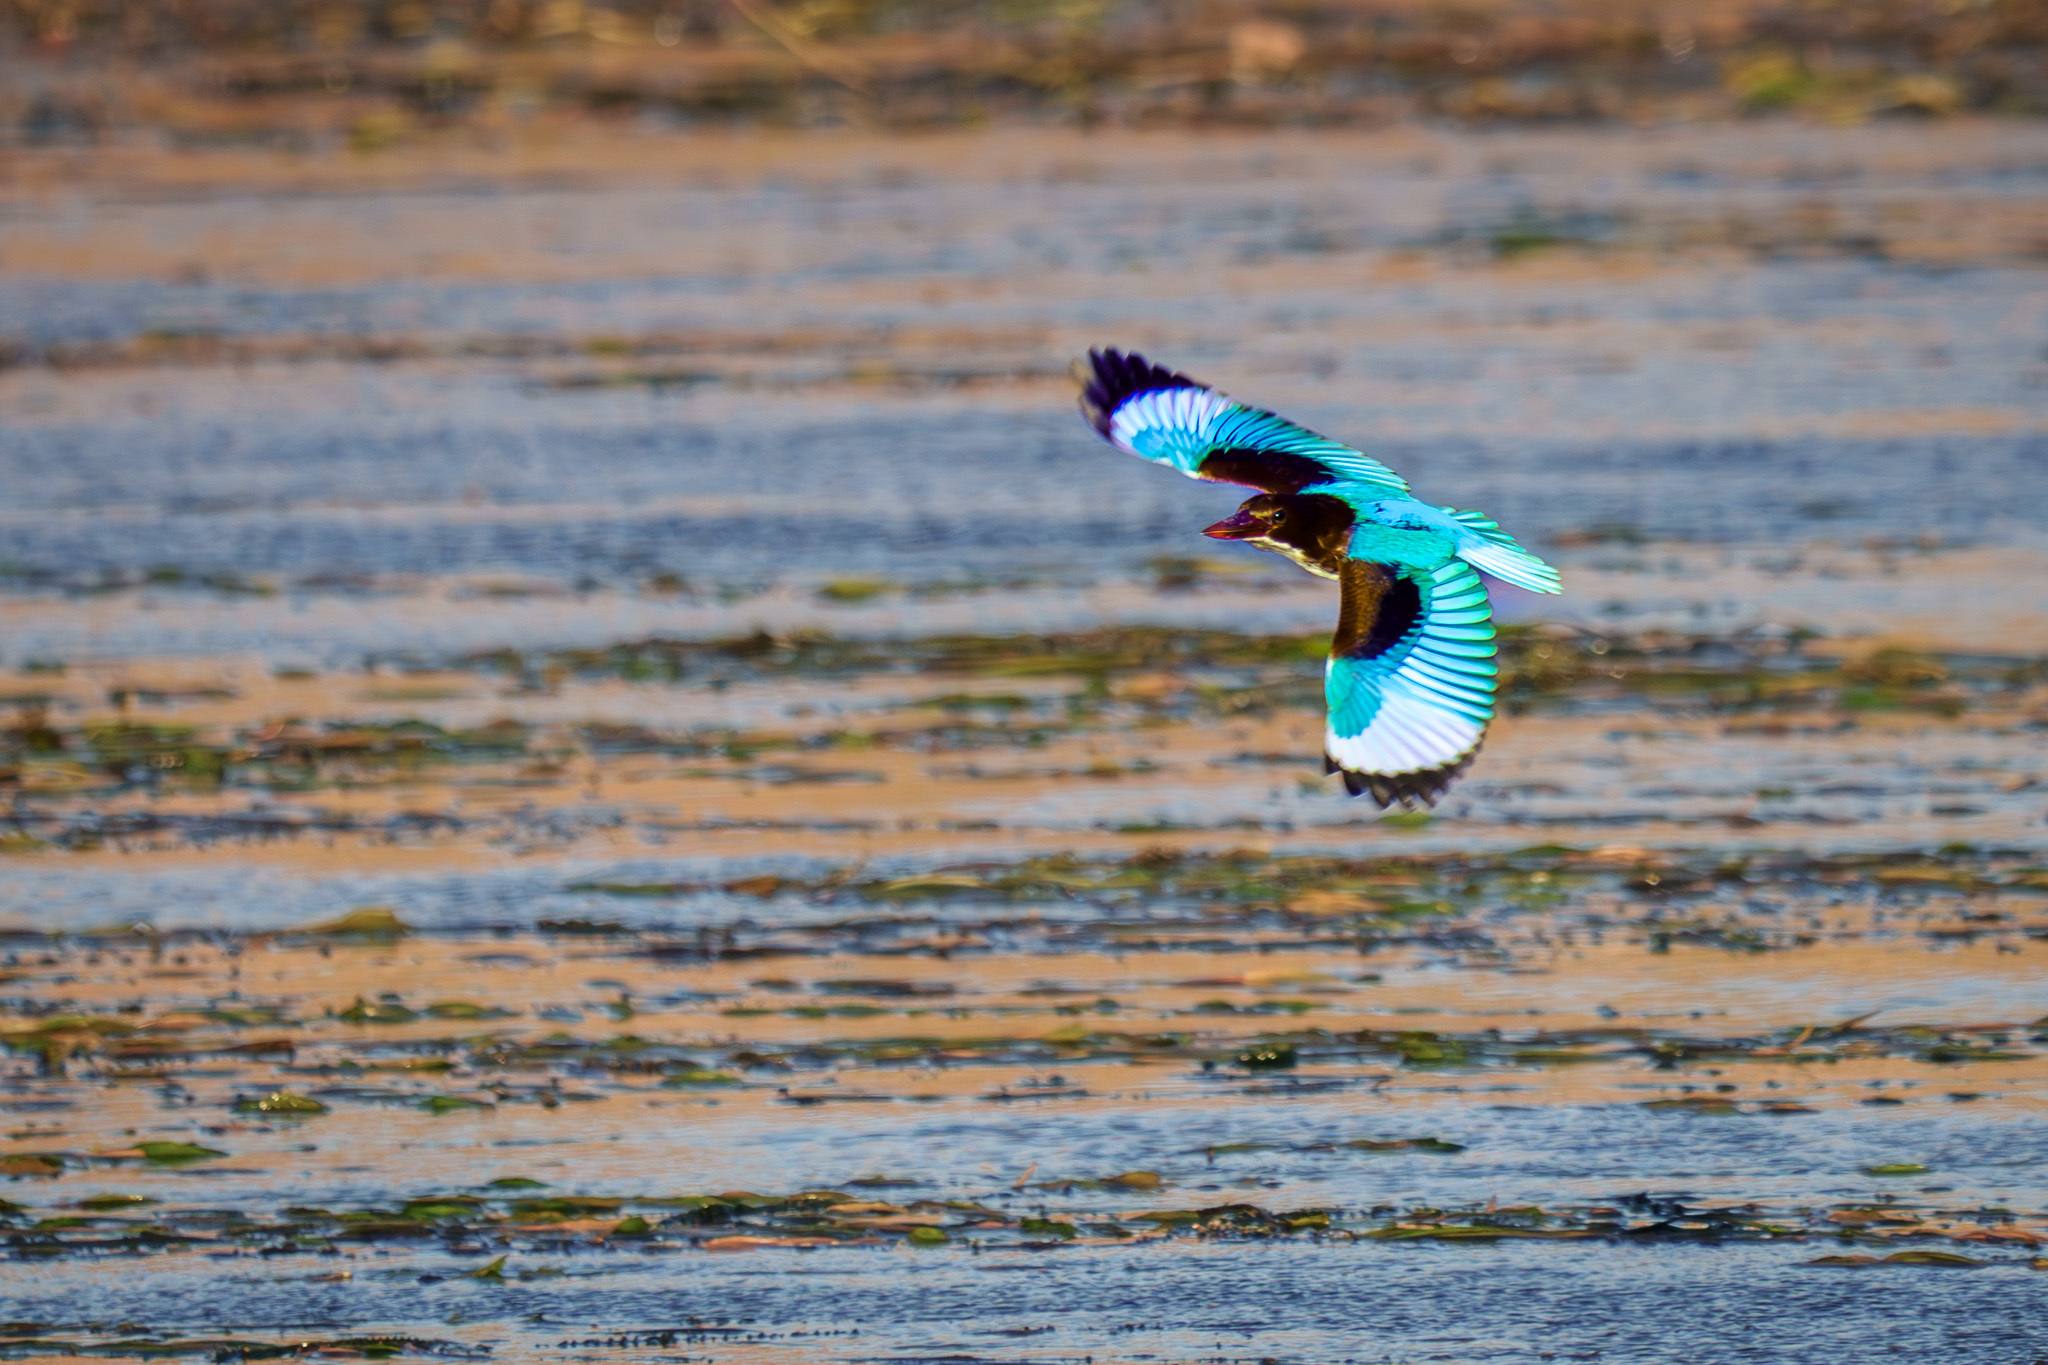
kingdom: Animalia
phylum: Chordata
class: Aves
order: Coraciiformes
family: Alcedinidae
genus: Halcyon
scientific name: Halcyon smyrnensis
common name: White-throated kingfisher
